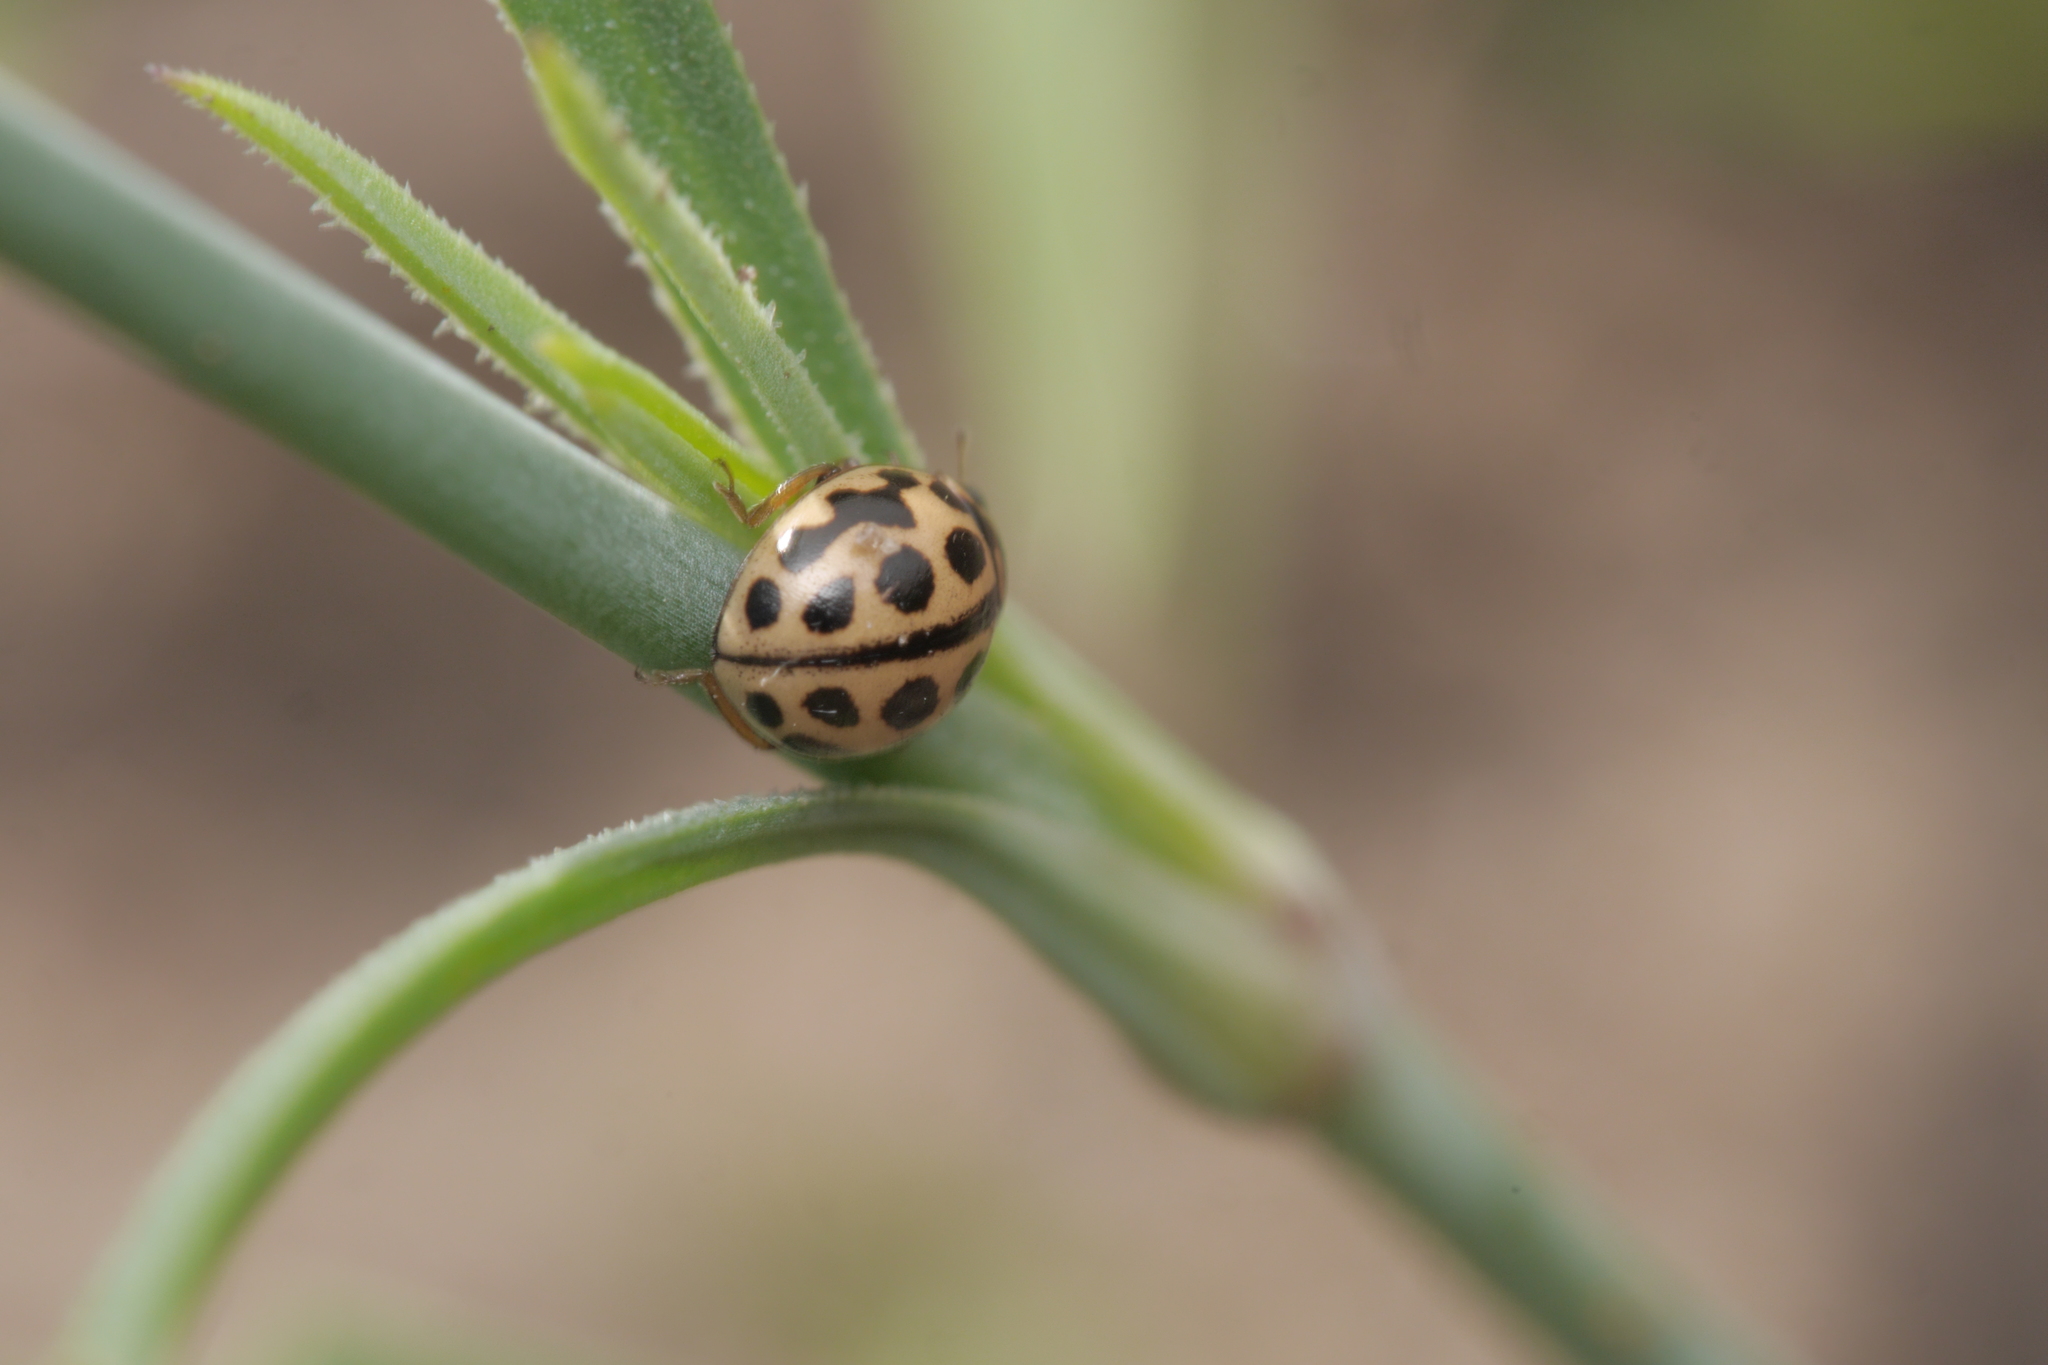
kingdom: Animalia
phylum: Arthropoda
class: Insecta
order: Coleoptera
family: Coccinellidae
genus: Tytthaspis
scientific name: Tytthaspis sedecimpunctata
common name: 16-spot ladybird
